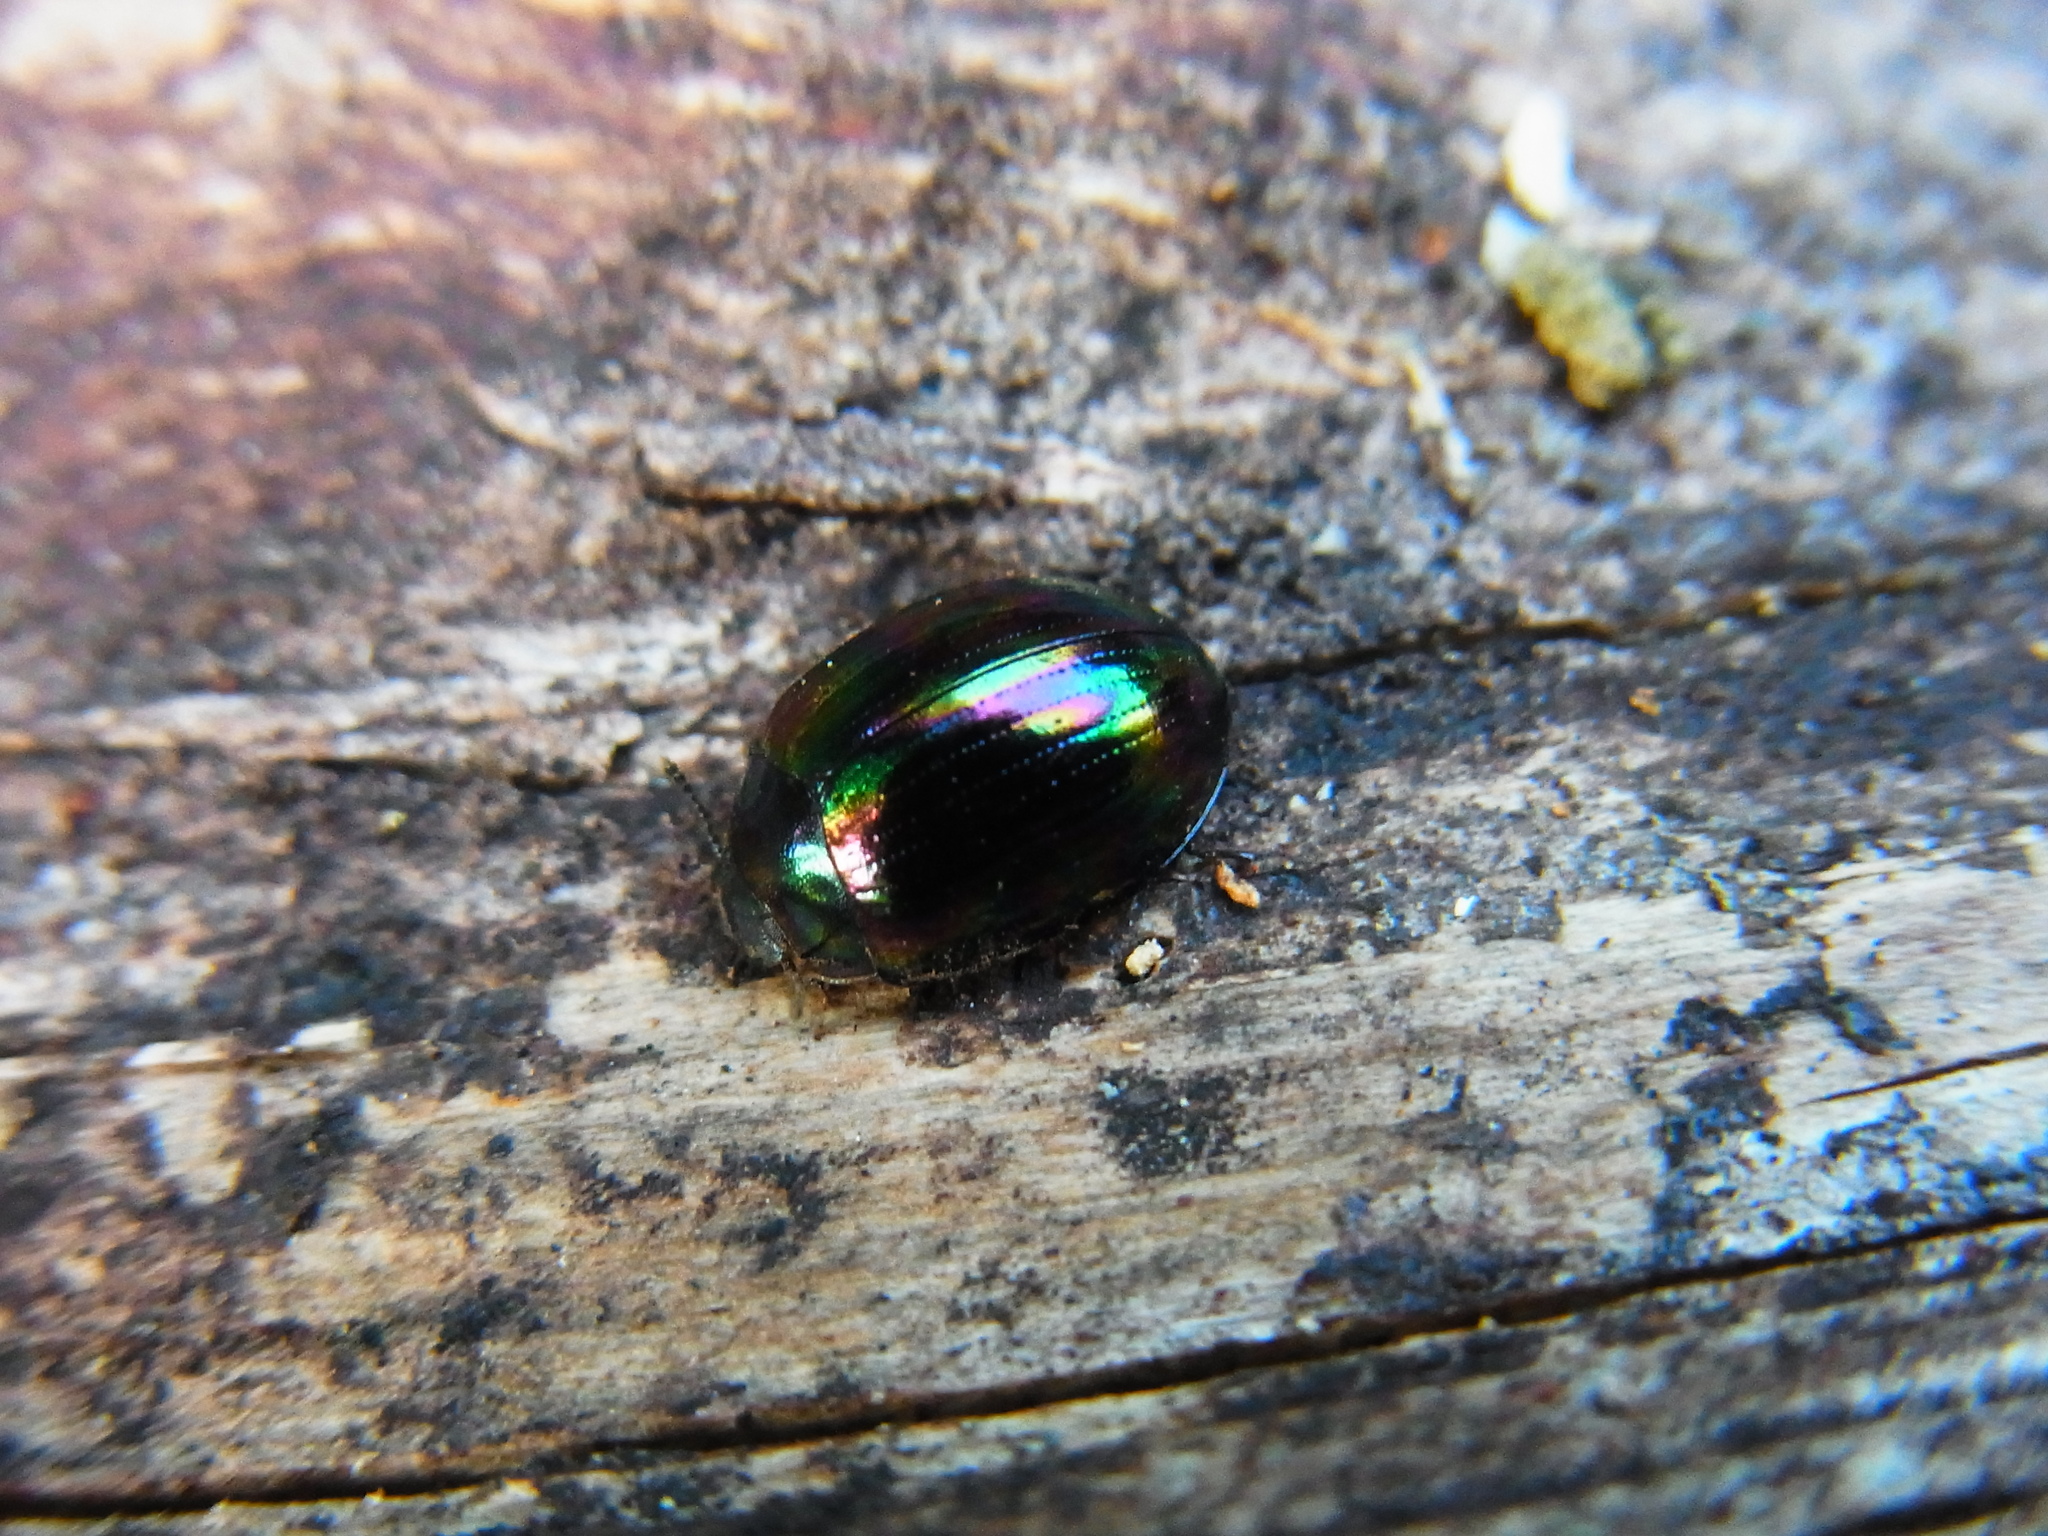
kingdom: Animalia
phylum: Arthropoda
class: Insecta
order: Coleoptera
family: Tenebrionidae
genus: Tetraphyllus
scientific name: Tetraphyllus
